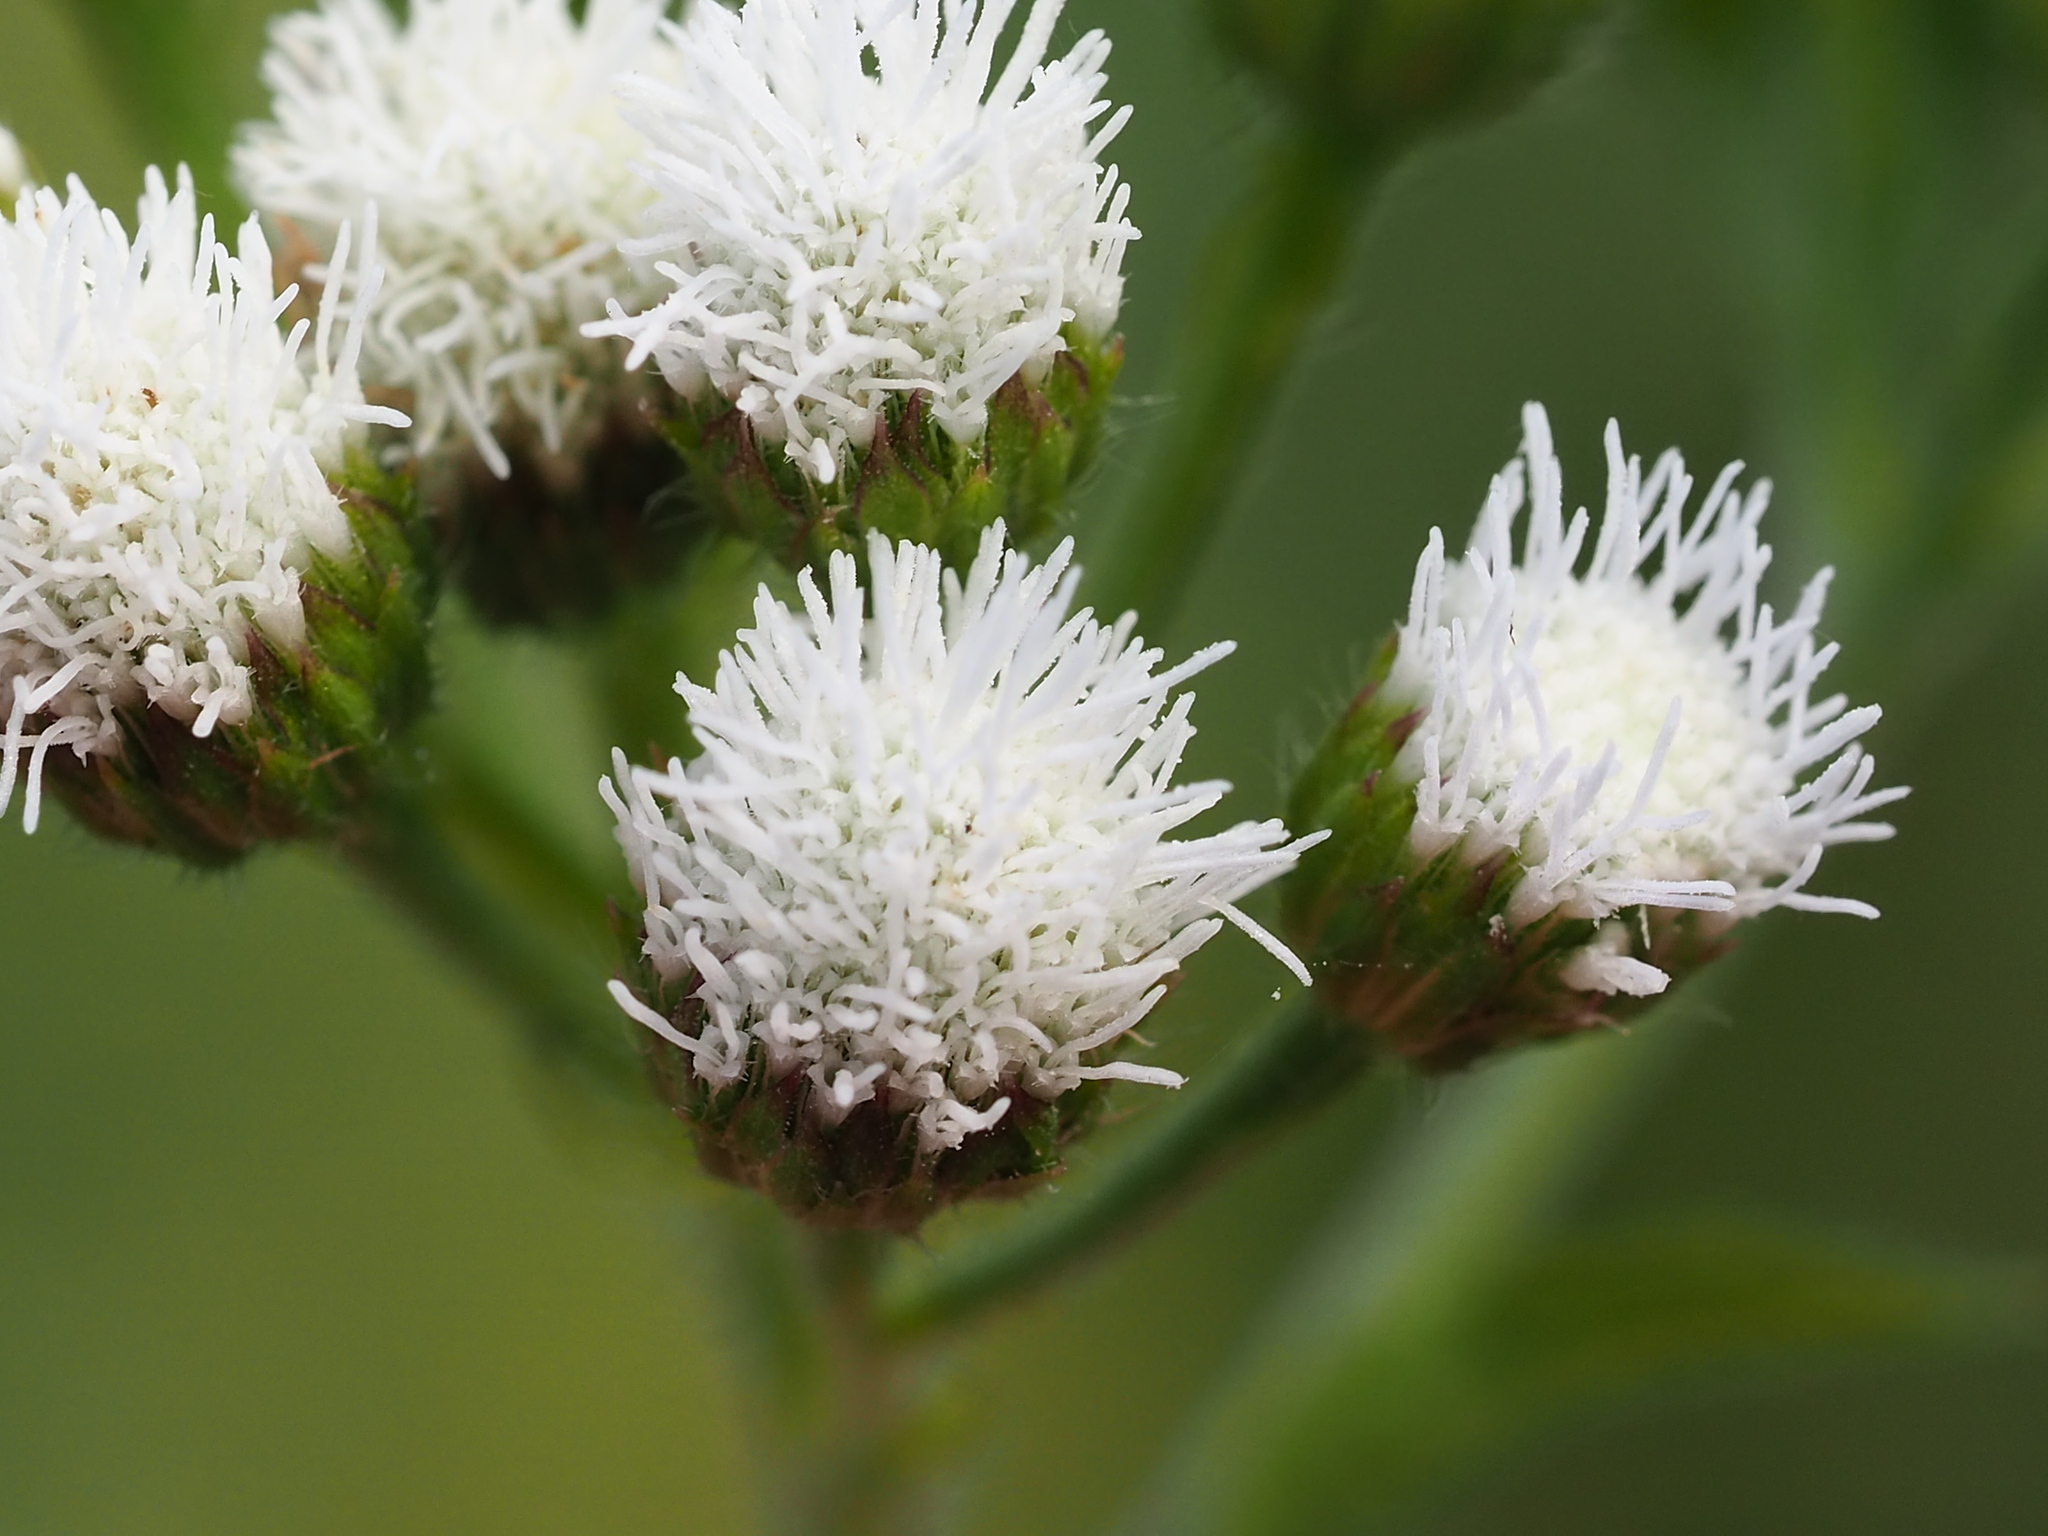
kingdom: Plantae
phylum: Tracheophyta
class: Magnoliopsida
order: Asterales
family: Asteraceae
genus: Ageratum
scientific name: Ageratum conyzoides
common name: Tropical whiteweed
